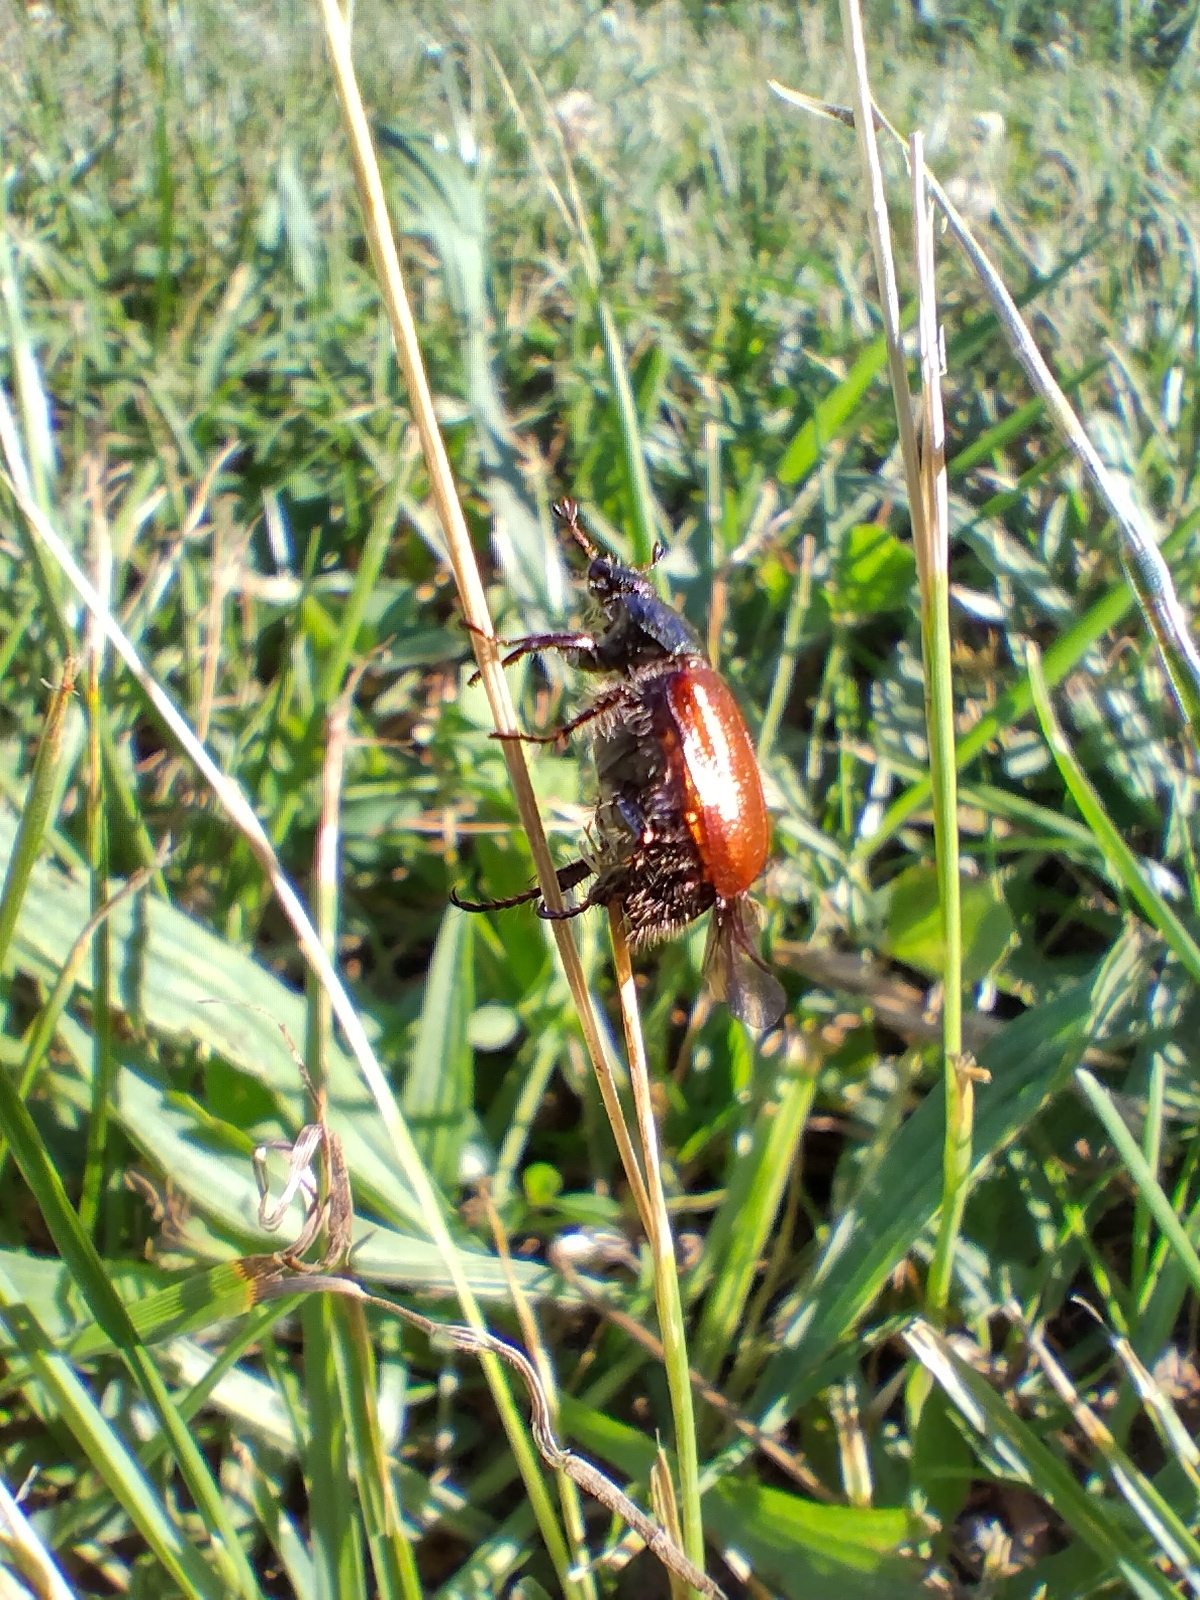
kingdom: Animalia
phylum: Arthropoda
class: Insecta
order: Coleoptera
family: Scarabaeidae
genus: Phyllopertha
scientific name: Phyllopertha horticola
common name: Garden chafer
